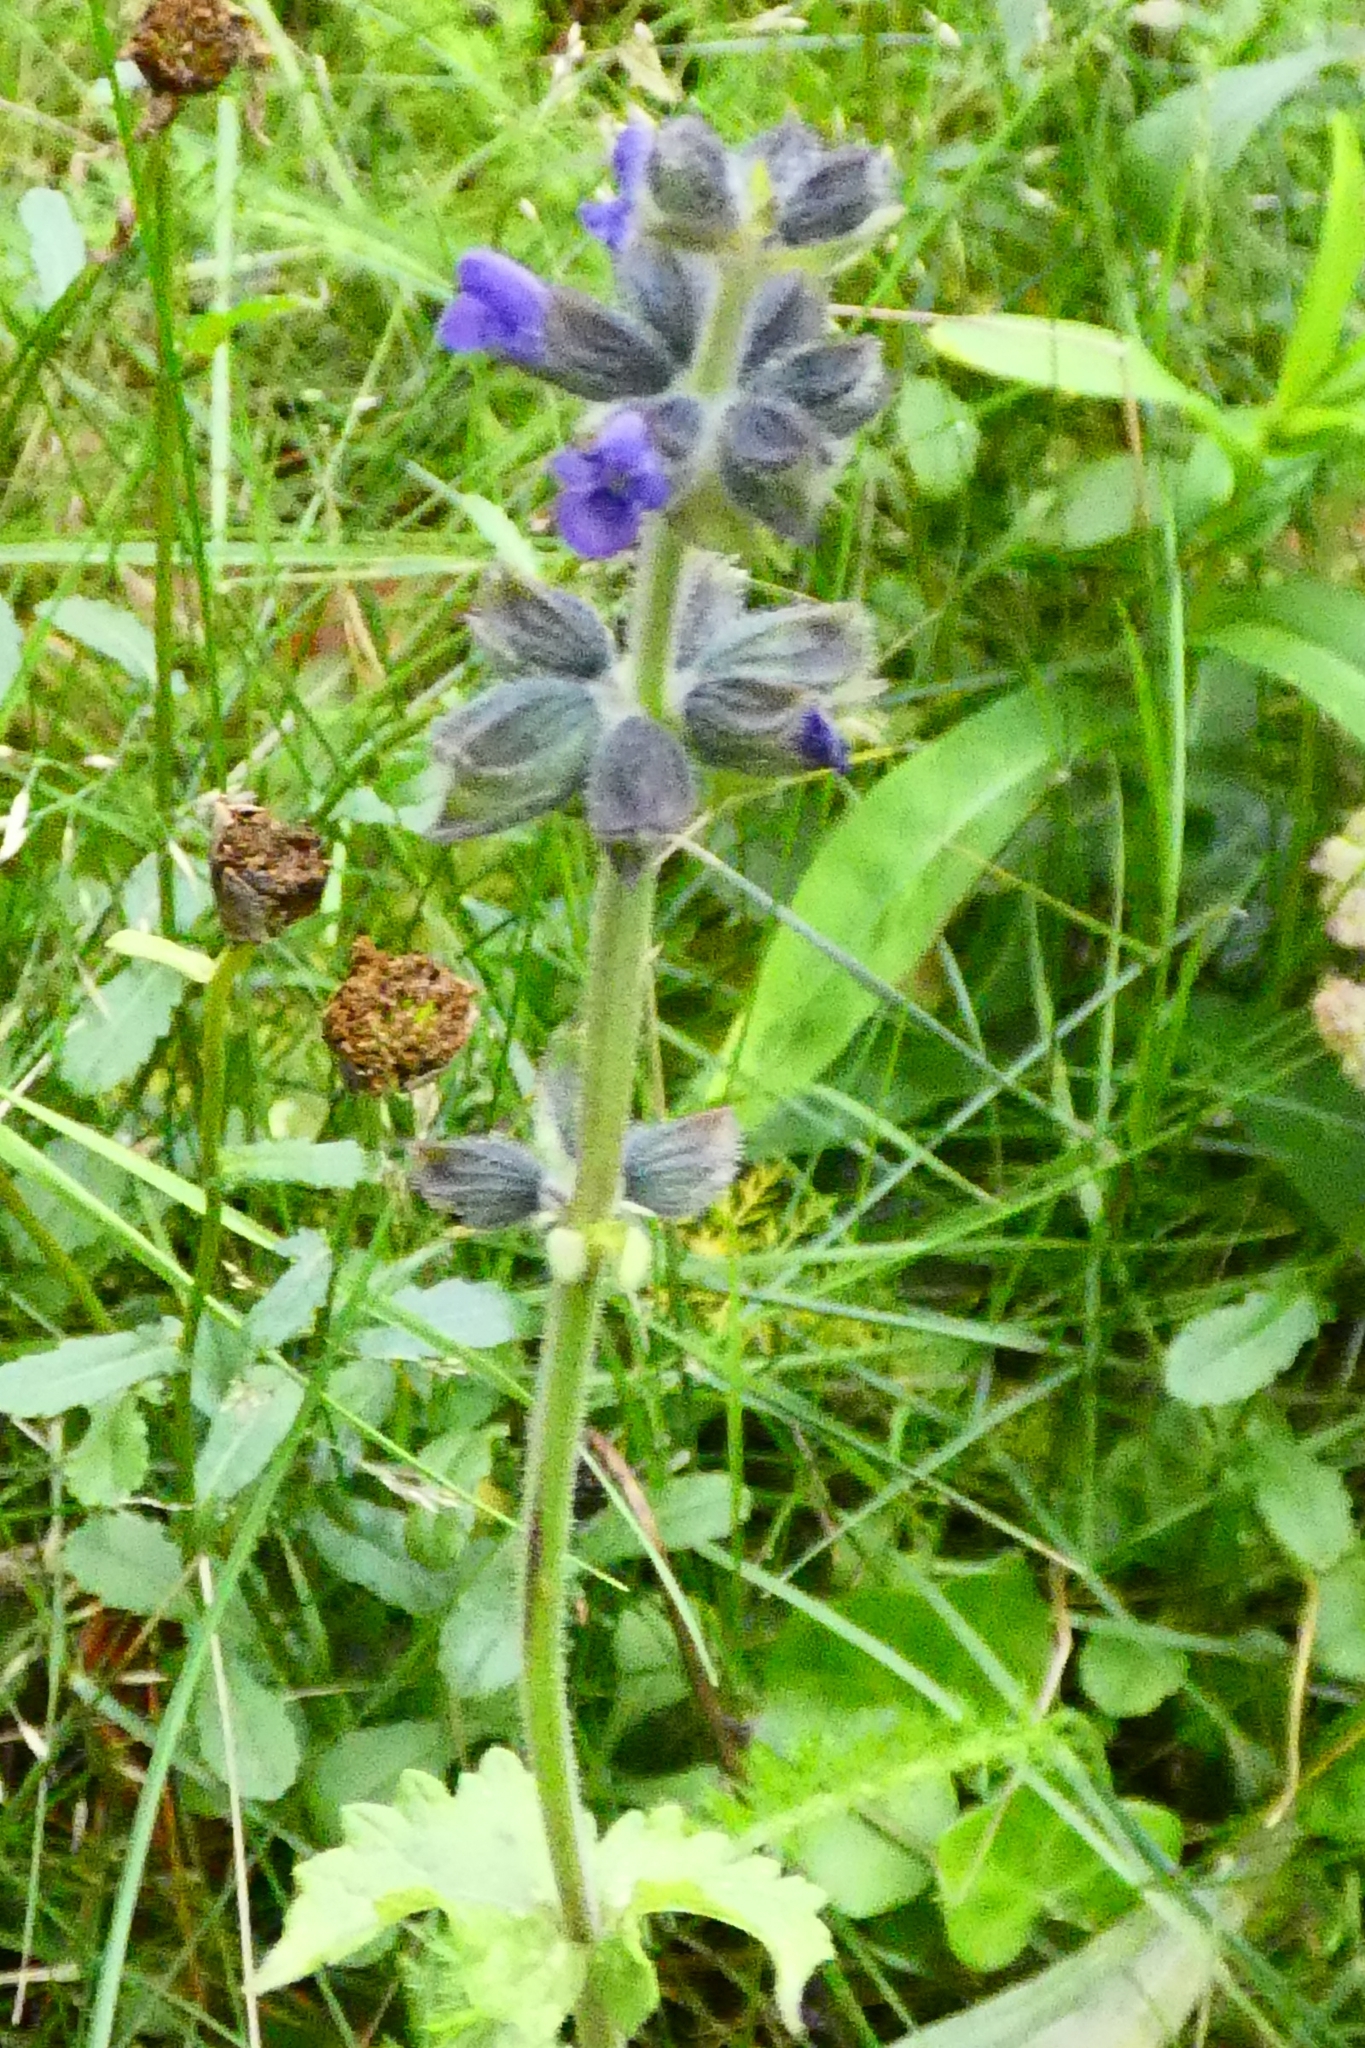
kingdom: Plantae
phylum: Tracheophyta
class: Magnoliopsida
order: Lamiales
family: Lamiaceae
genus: Salvia
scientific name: Salvia verbenaca
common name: Wild clary
